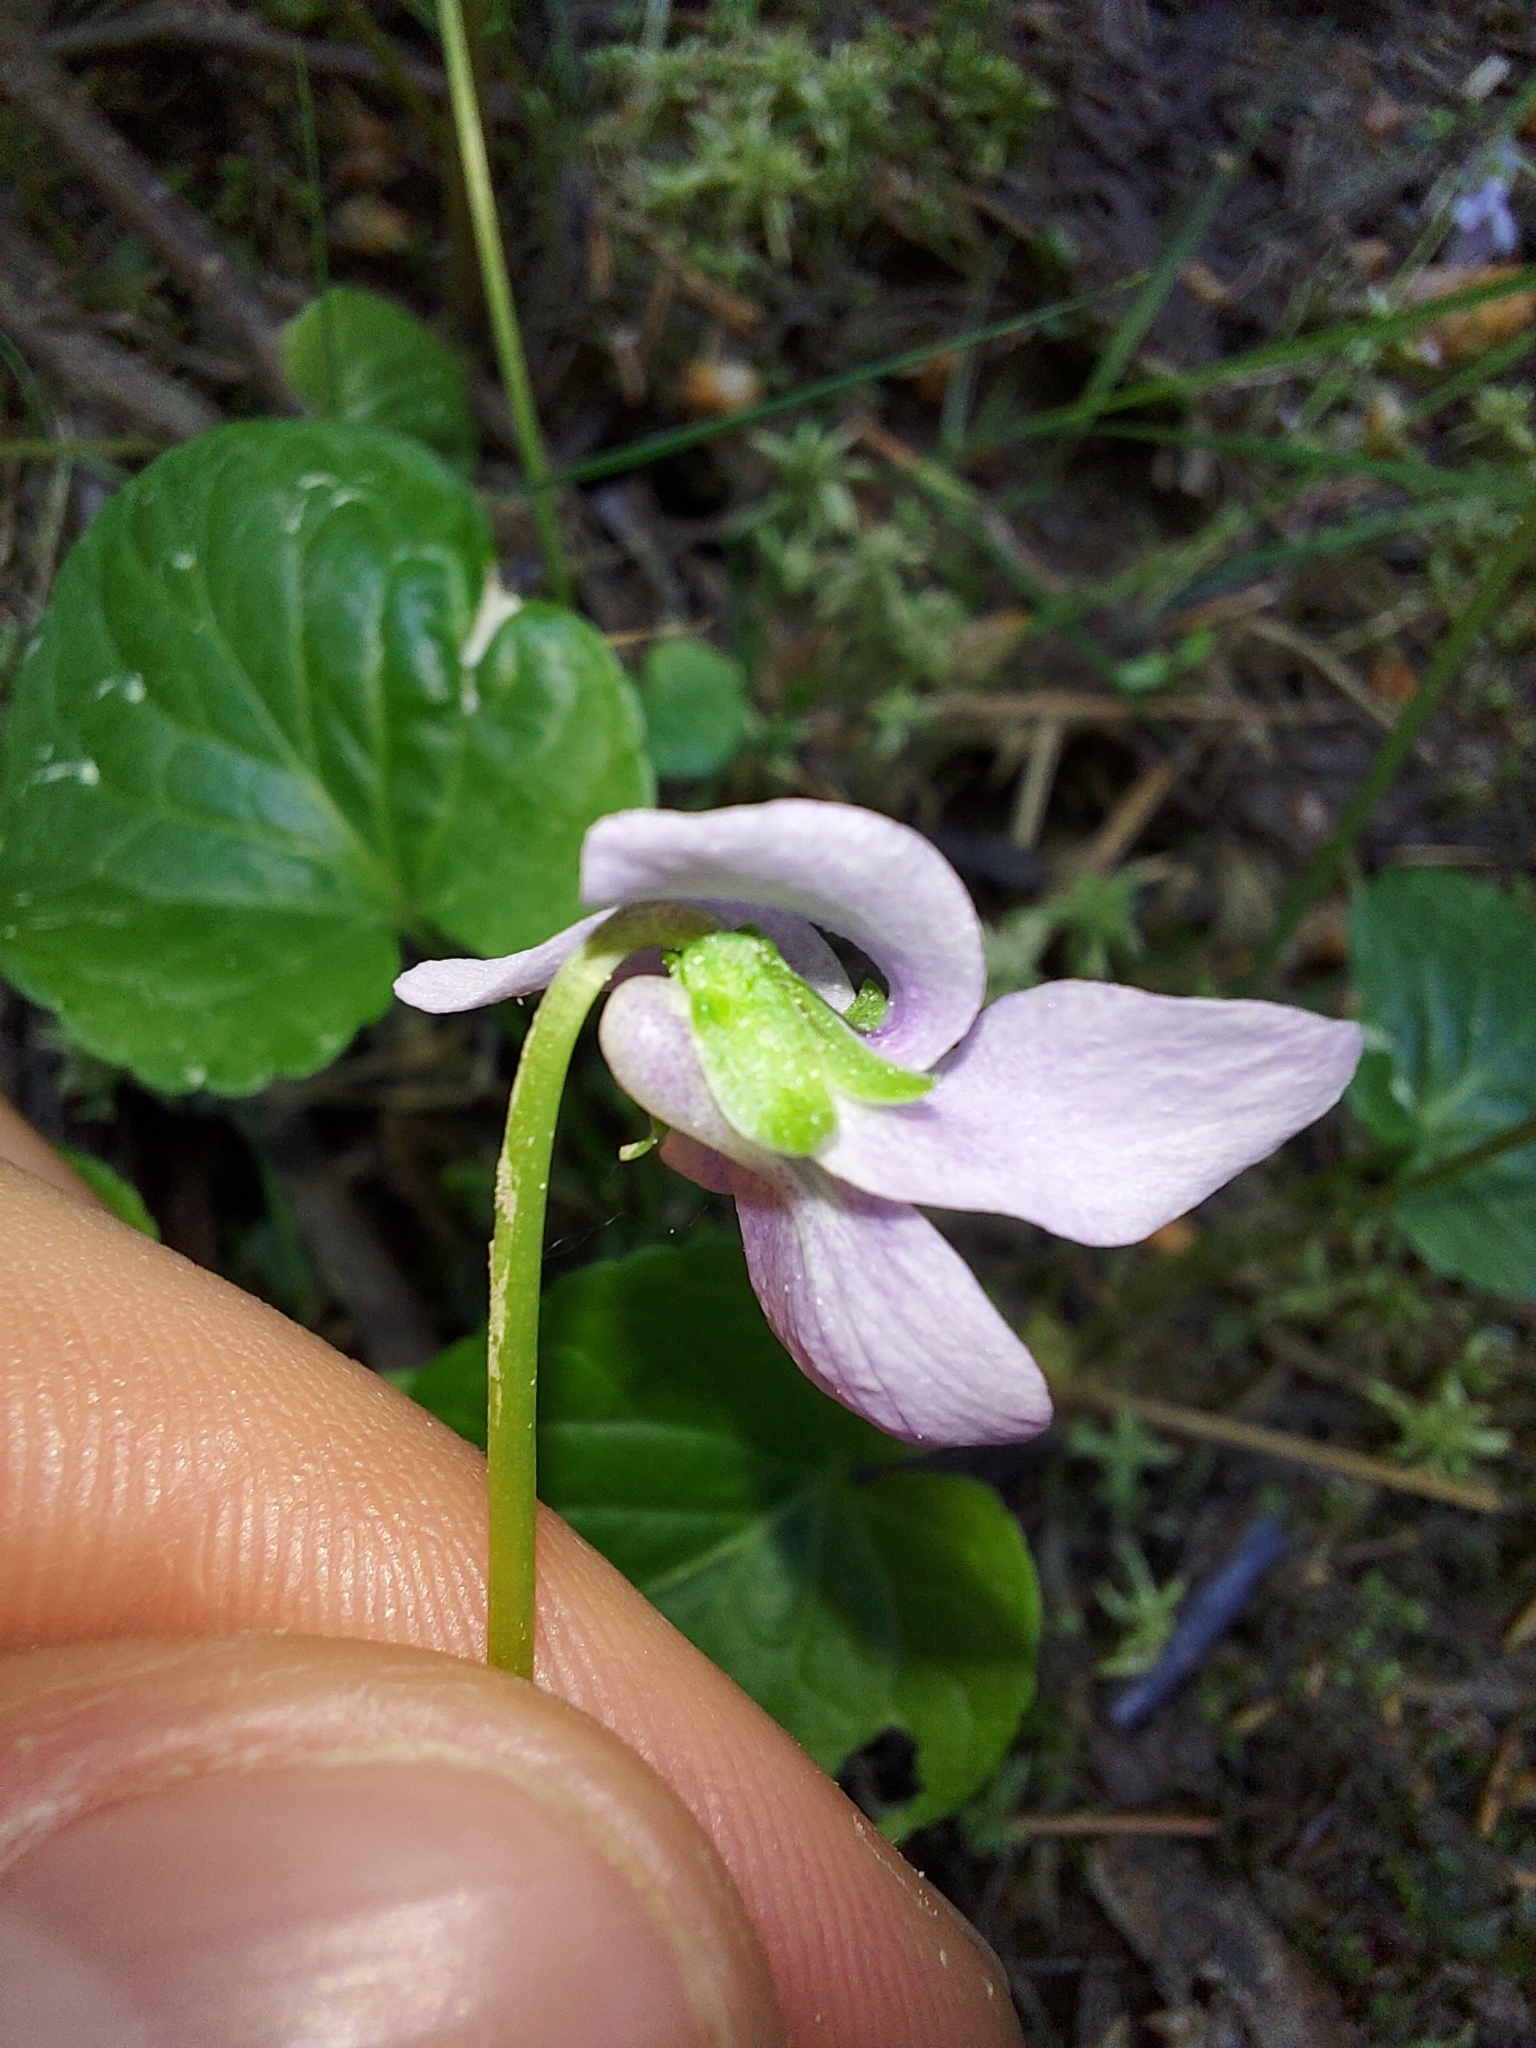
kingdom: Plantae
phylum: Tracheophyta
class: Magnoliopsida
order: Malpighiales
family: Violaceae
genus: Viola
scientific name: Viola palustris
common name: Marsh violet
